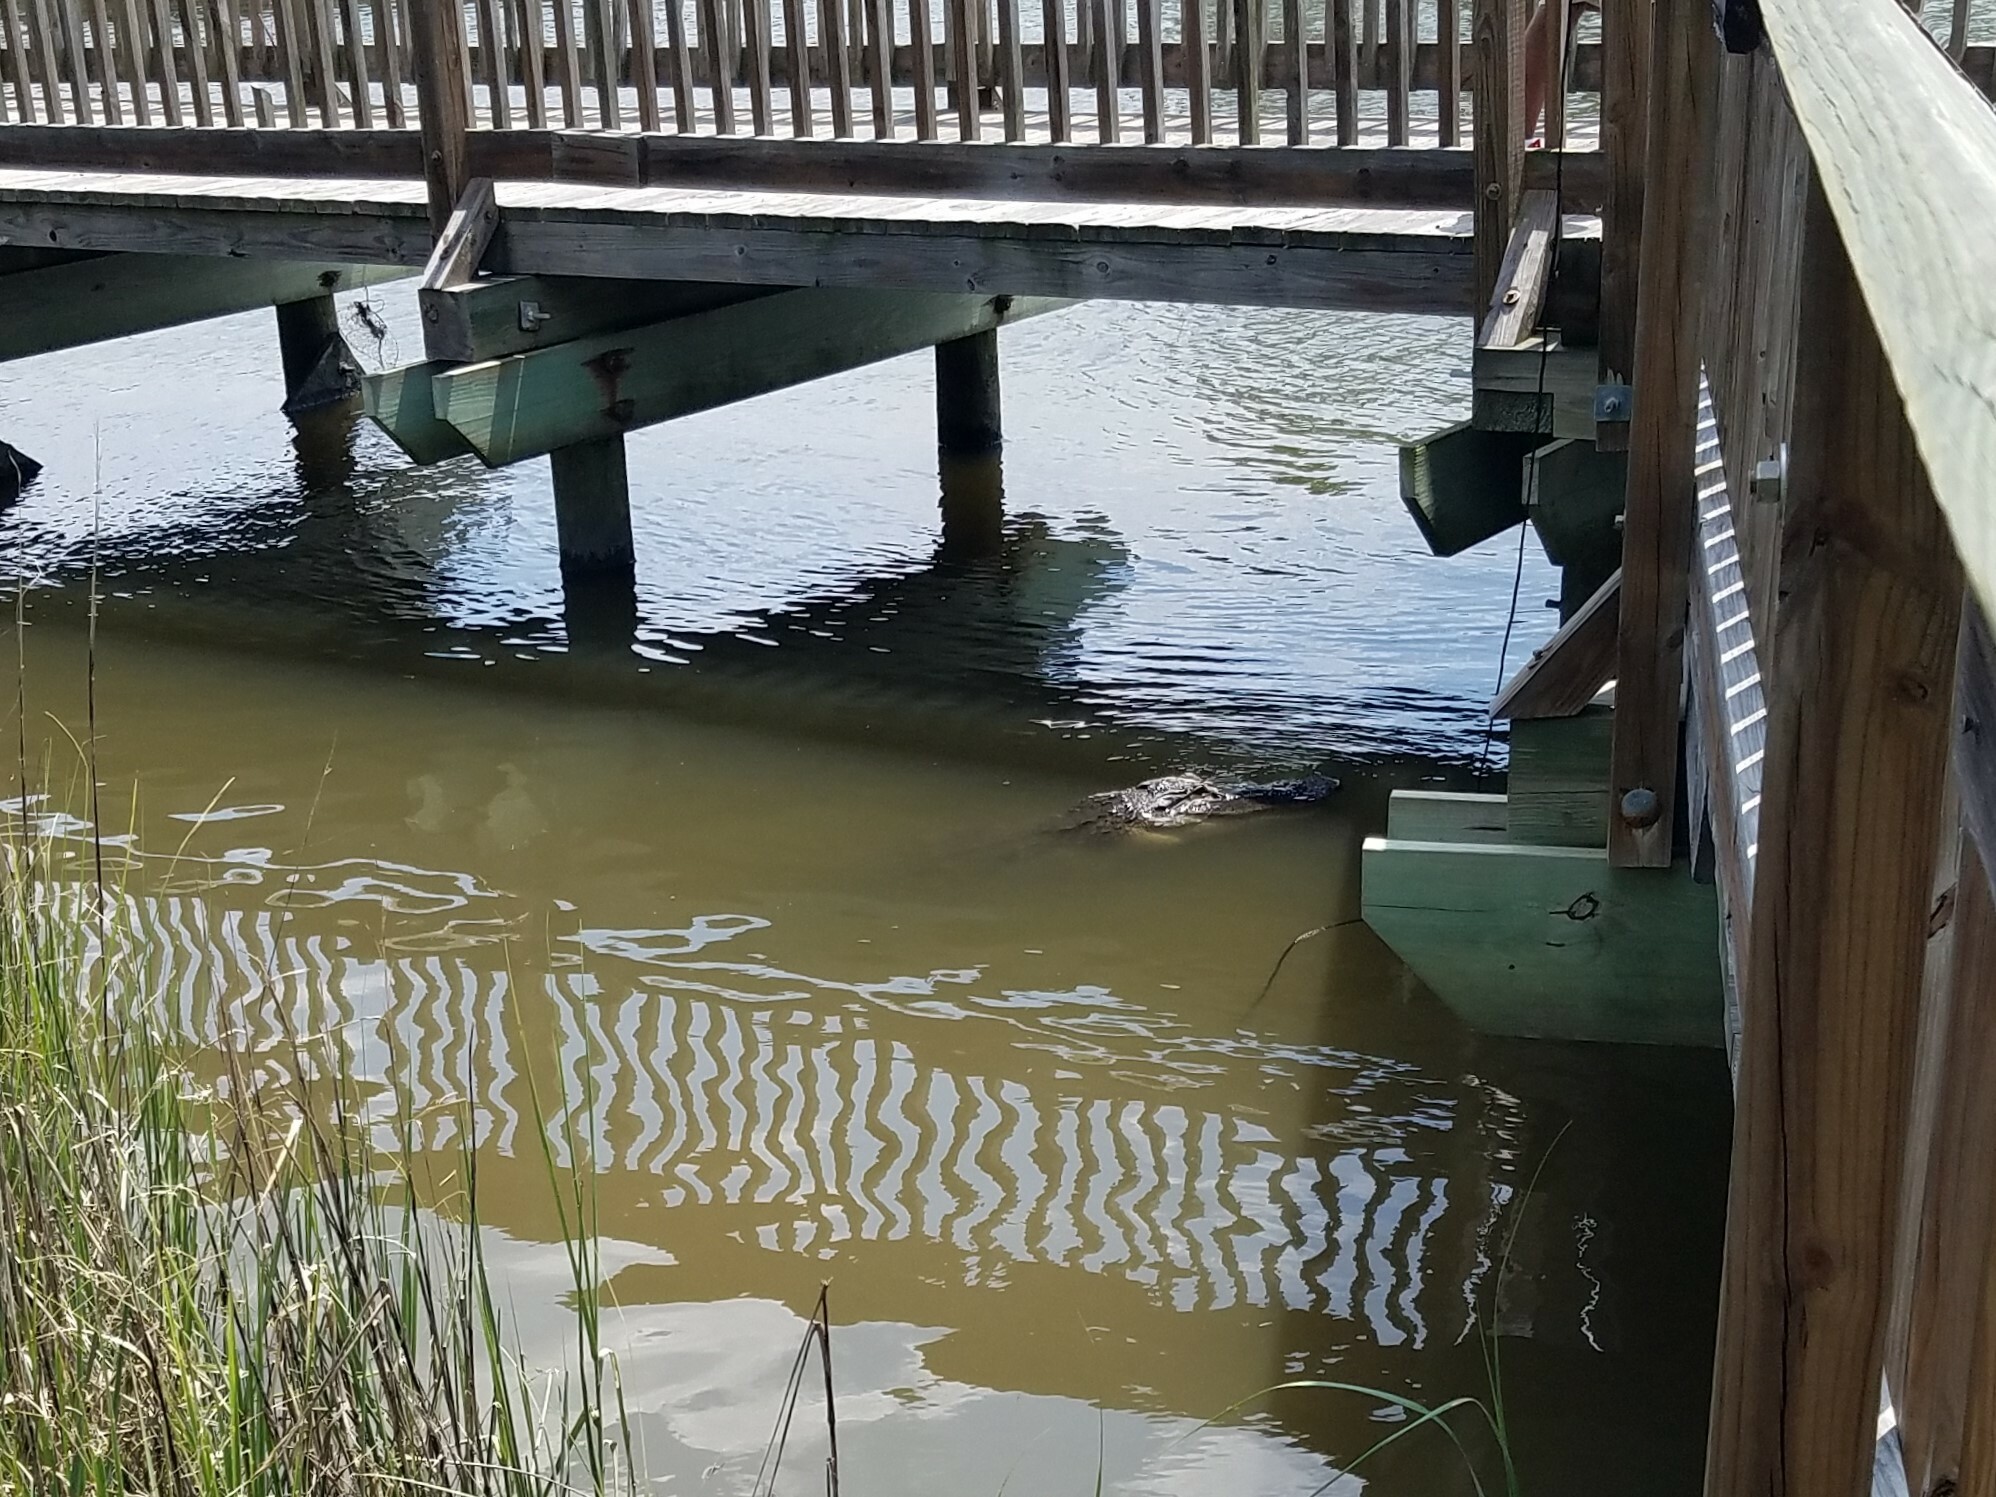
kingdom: Animalia
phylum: Chordata
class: Crocodylia
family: Alligatoridae
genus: Alligator
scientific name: Alligator mississippiensis
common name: American alligator
